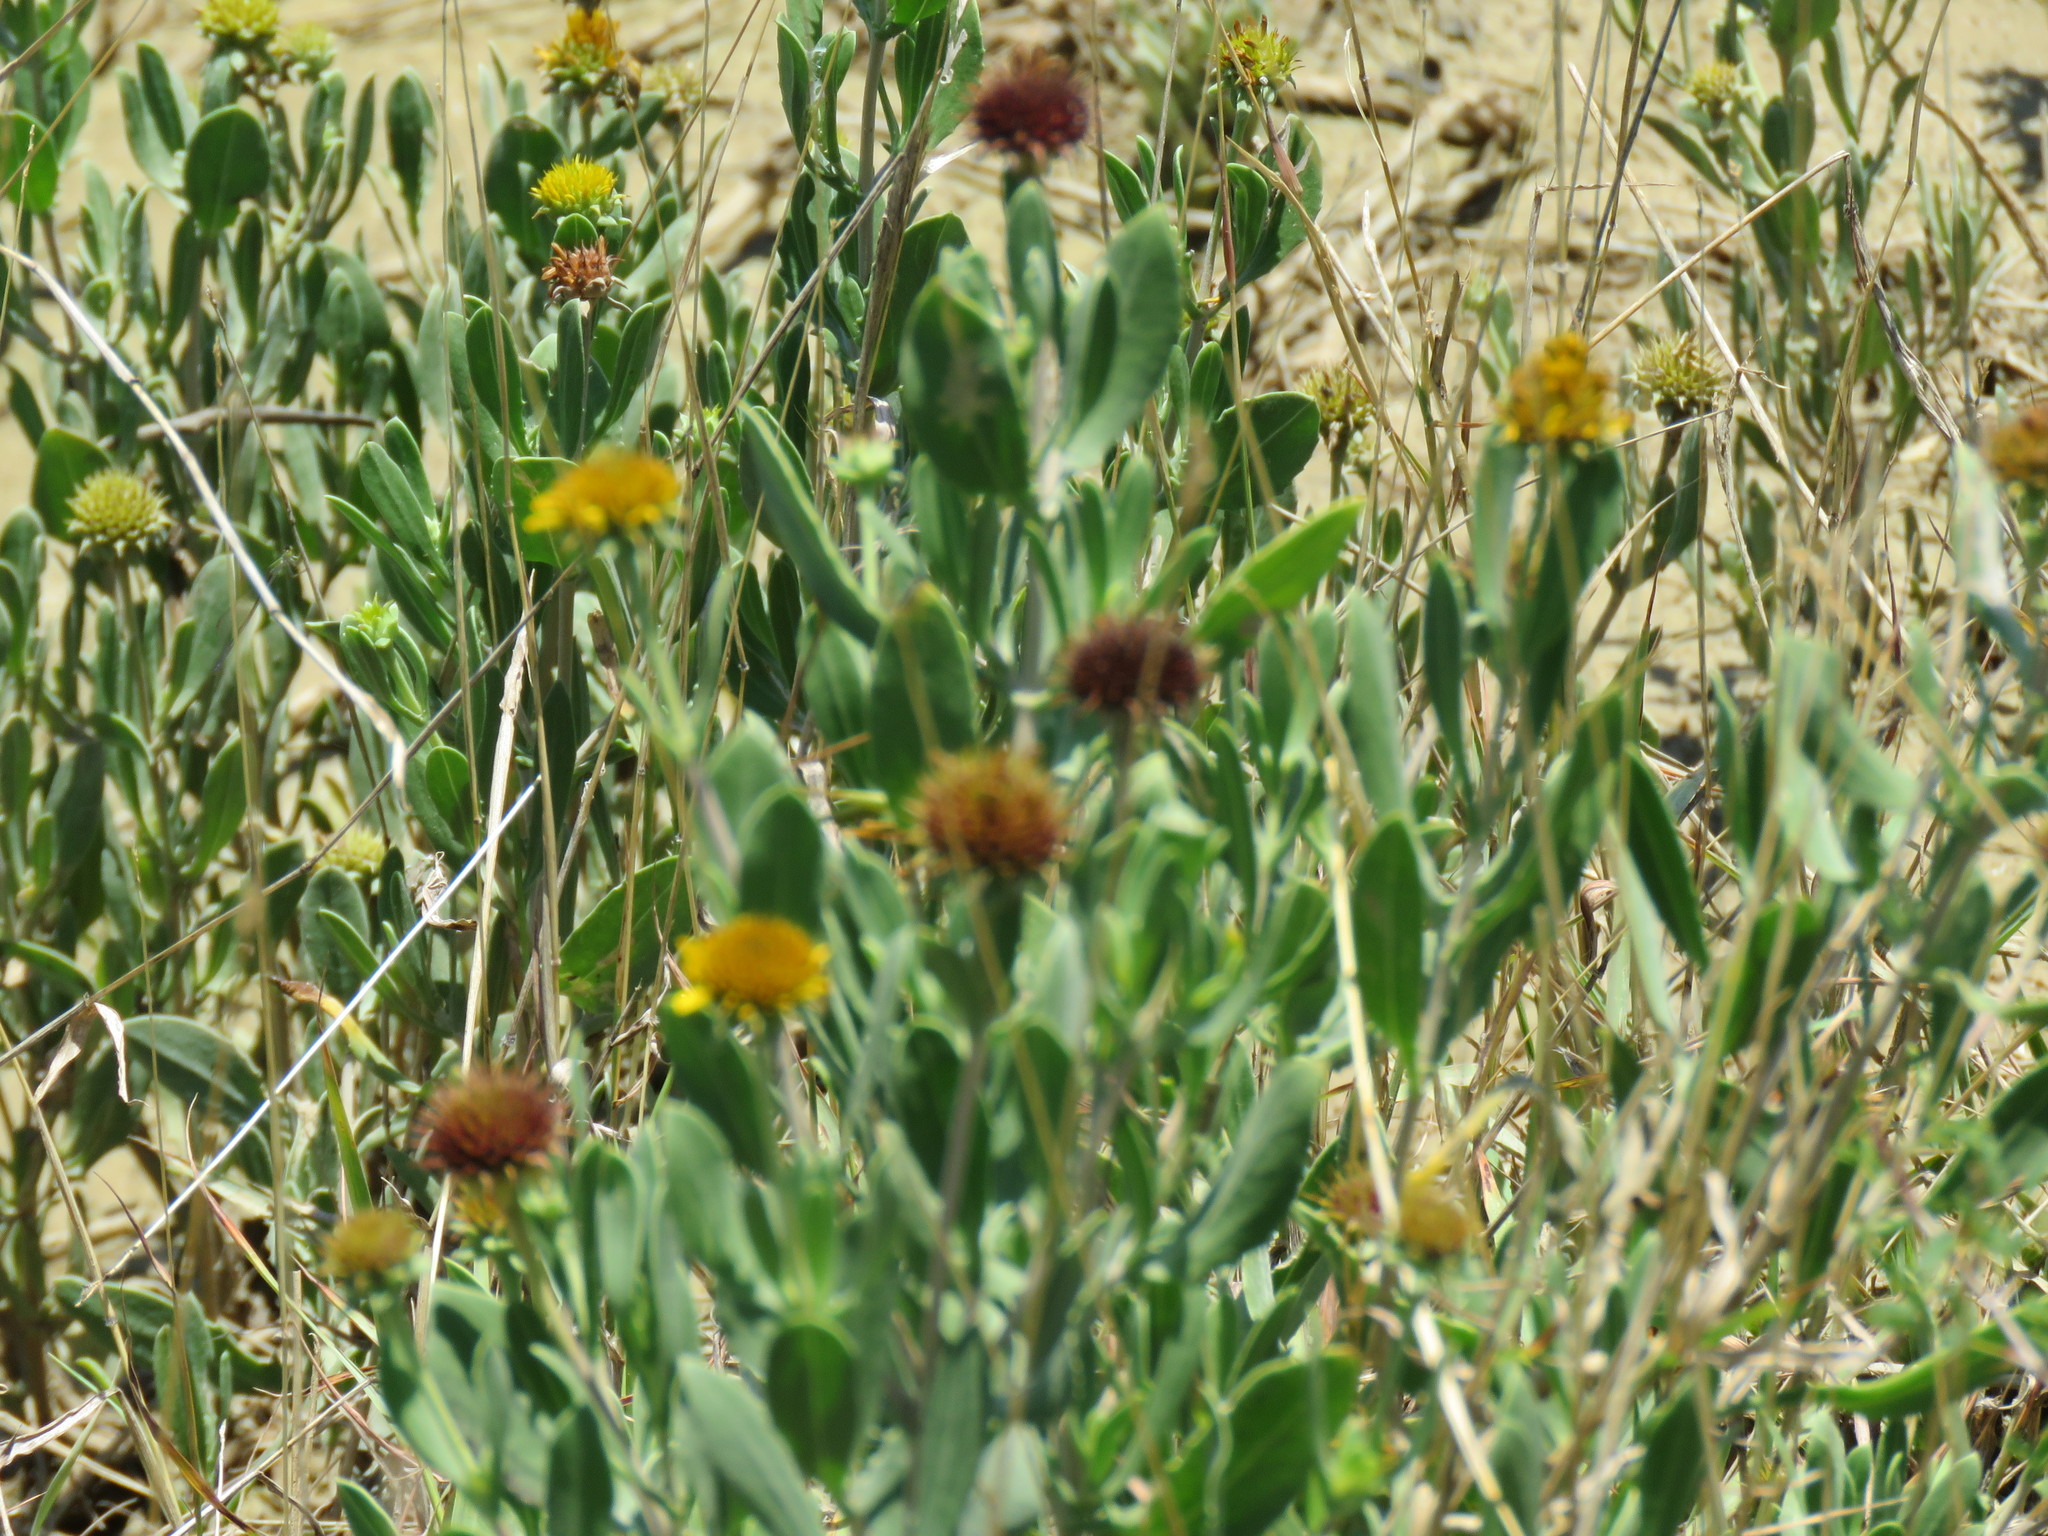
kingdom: Plantae
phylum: Tracheophyta
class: Magnoliopsida
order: Asterales
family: Asteraceae
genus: Borrichia
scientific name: Borrichia frutescens
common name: Sea oxeye
